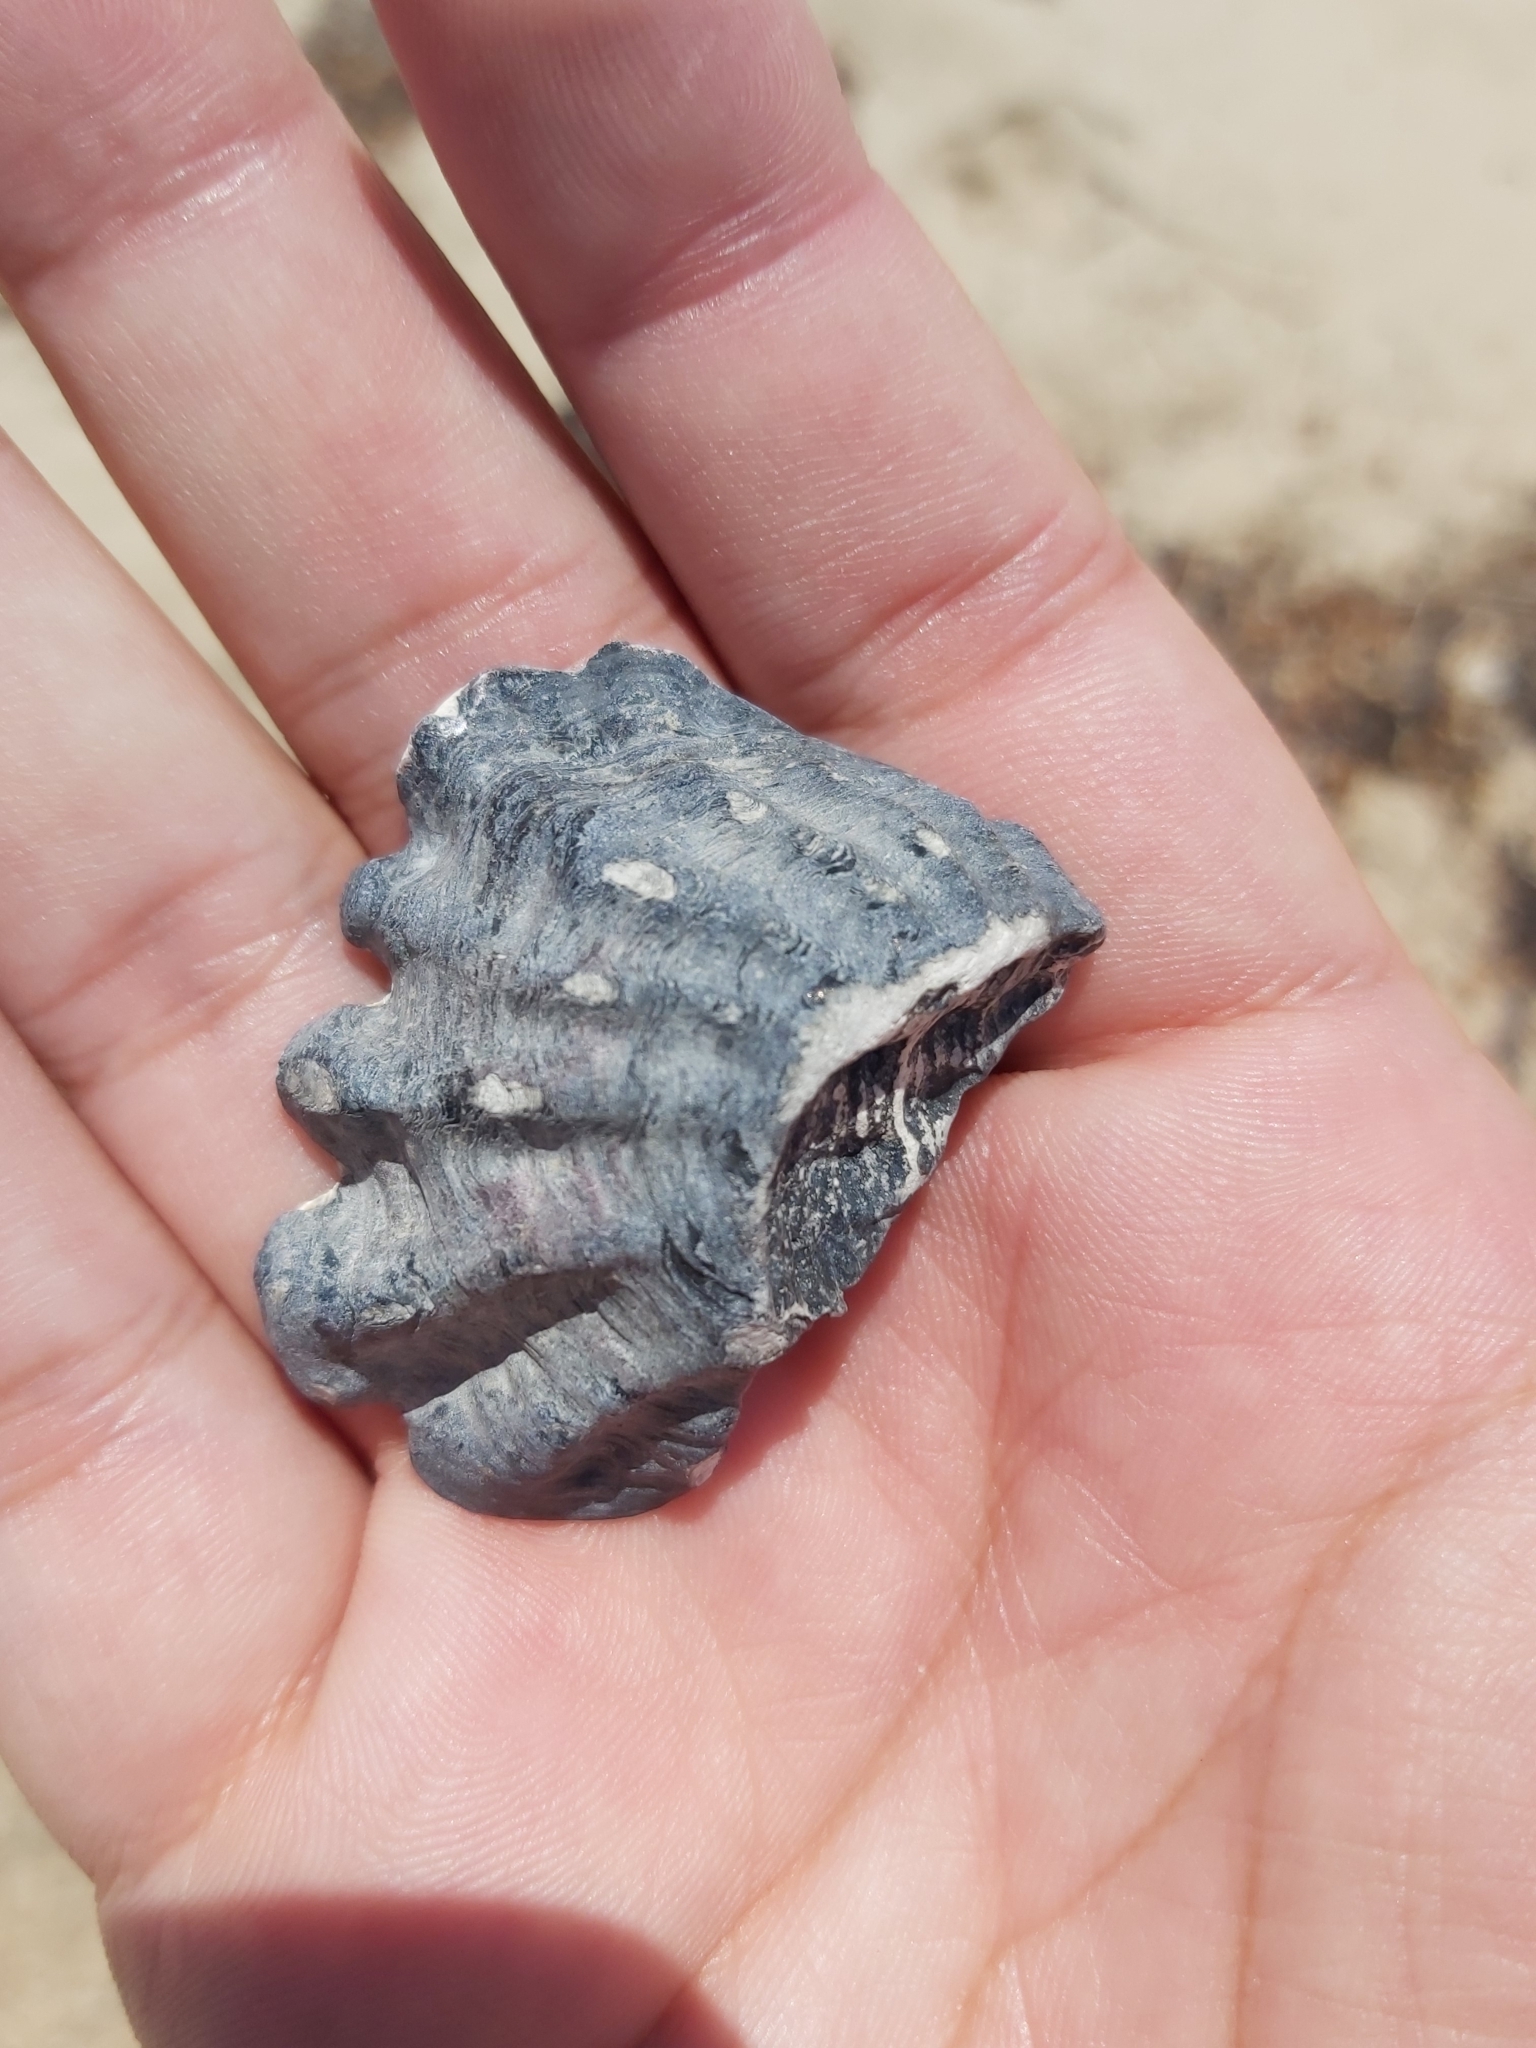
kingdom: Animalia
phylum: Mollusca
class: Bivalvia
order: Ostreida
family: Ostreidae
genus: Saccostrea
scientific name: Saccostrea glomerata
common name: Sydney cupped oyster
